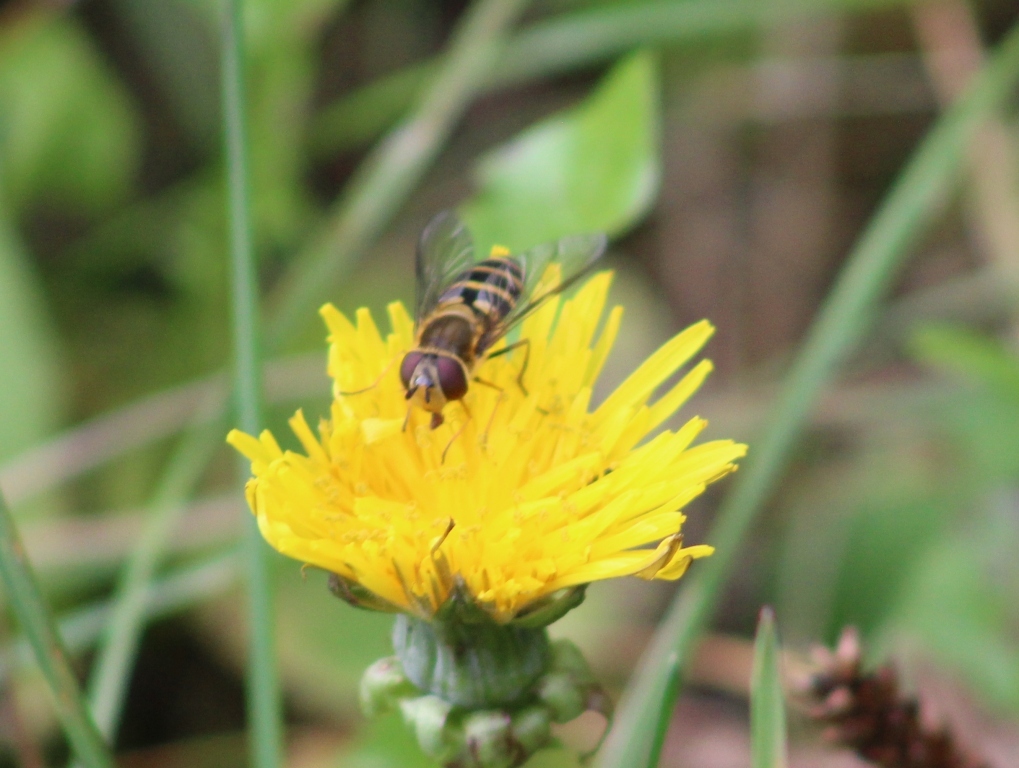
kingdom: Animalia
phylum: Arthropoda
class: Insecta
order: Diptera
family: Syrphidae
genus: Syrphus
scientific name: Syrphus
